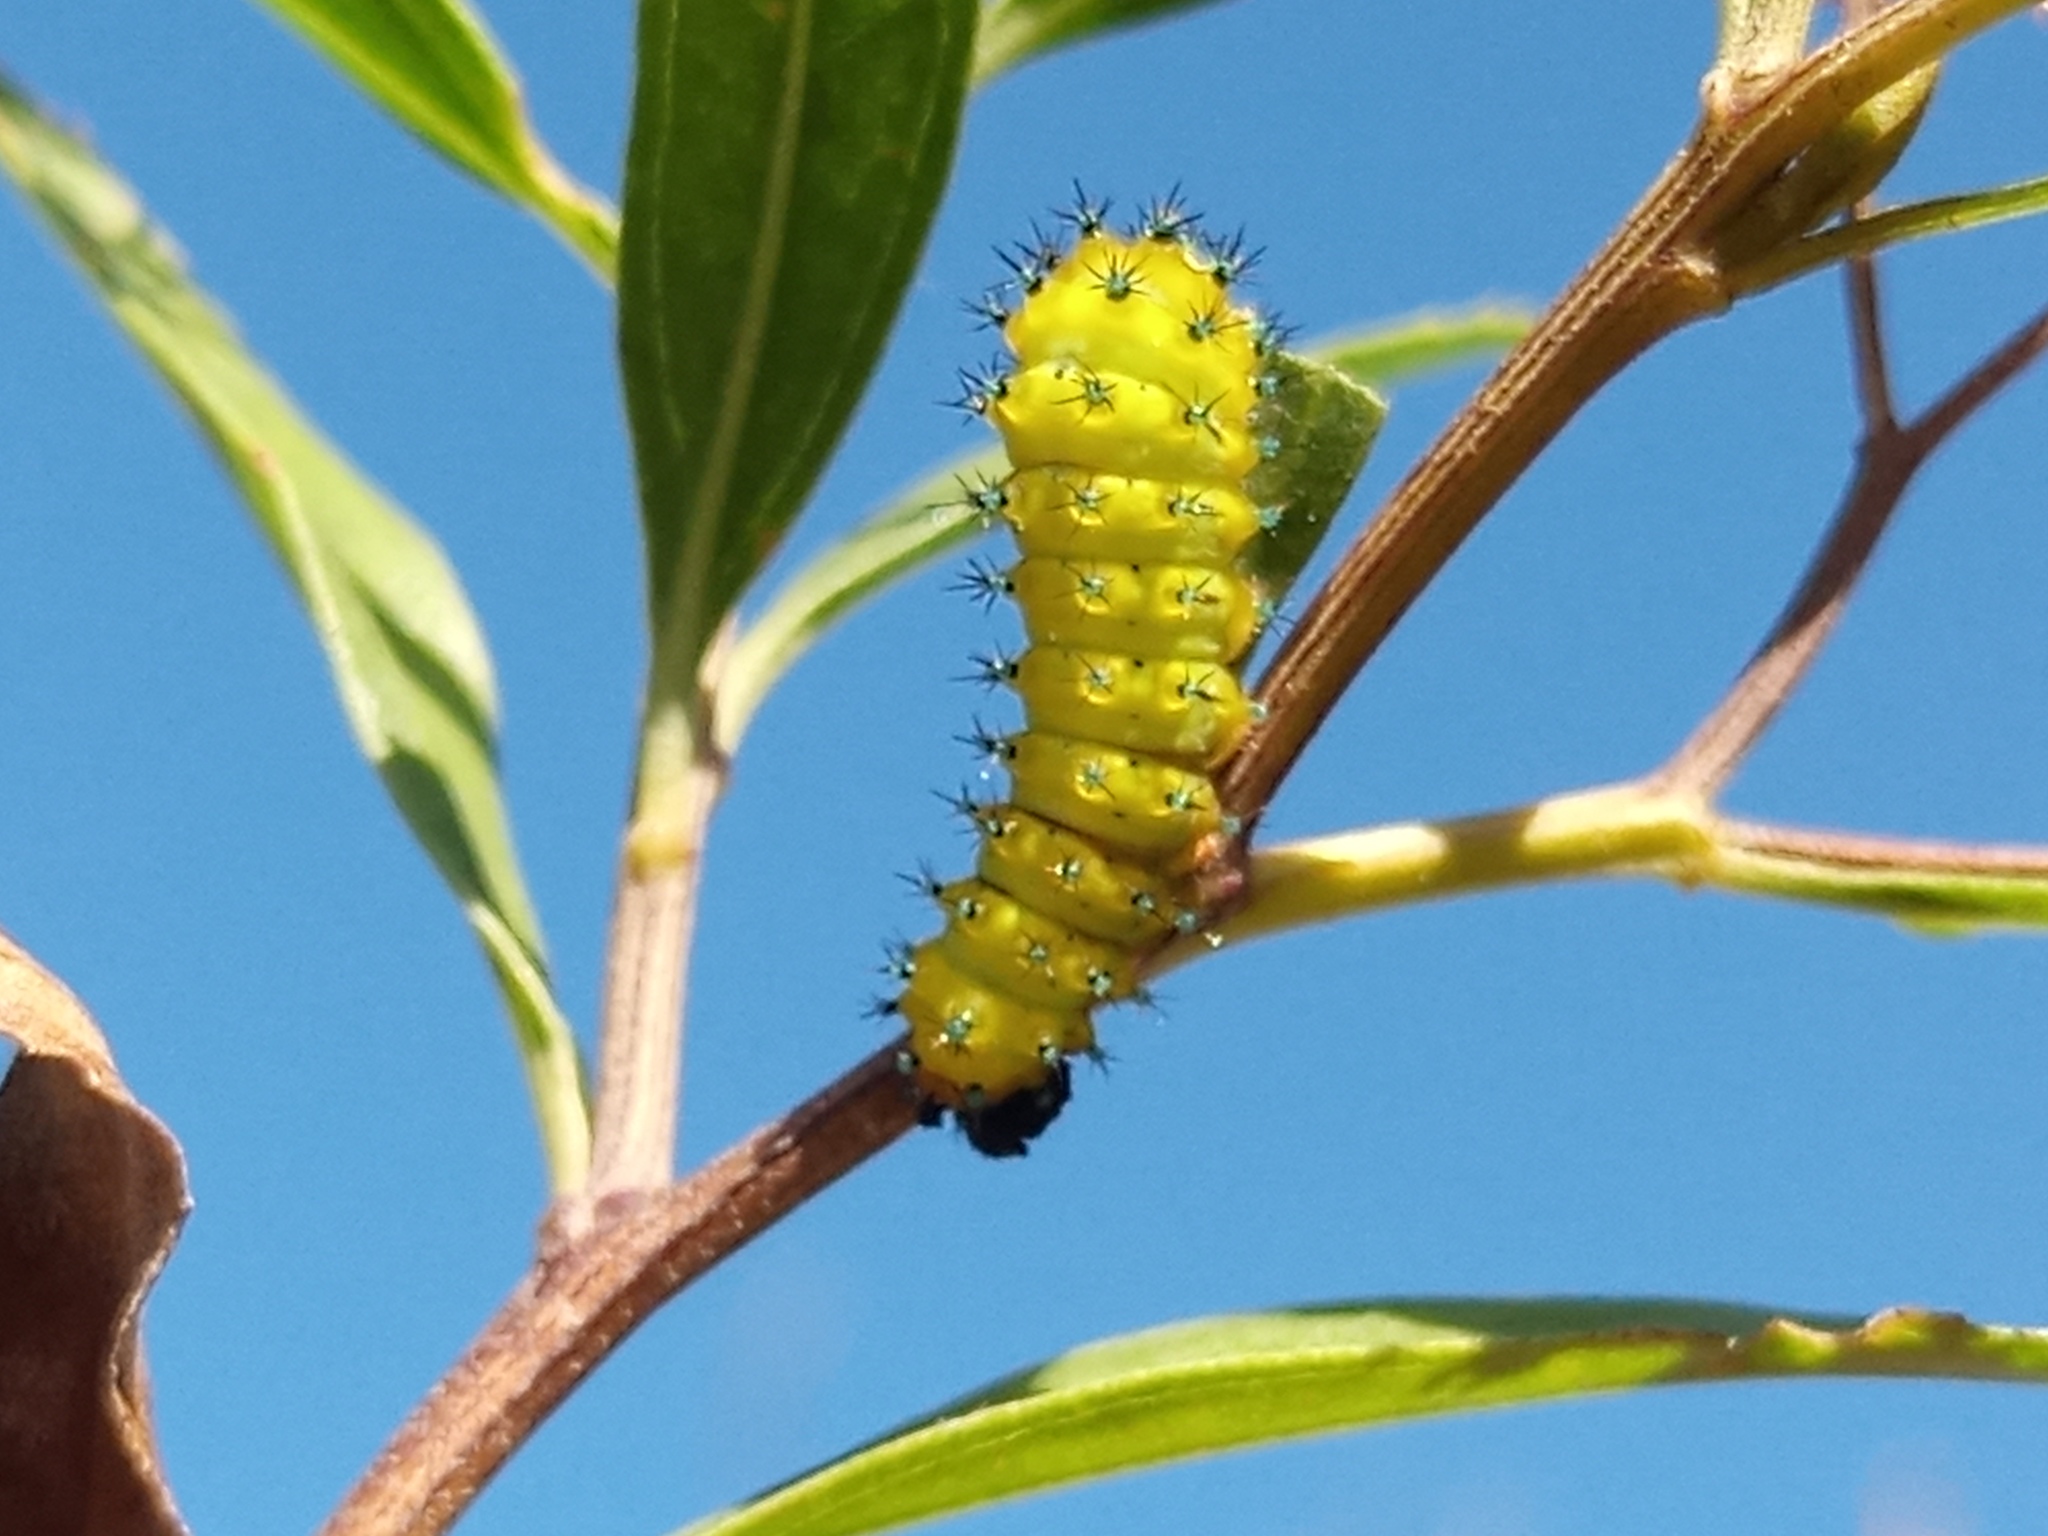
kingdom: Animalia
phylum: Arthropoda
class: Insecta
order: Lepidoptera
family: Saturniidae
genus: Rothschildia
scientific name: Rothschildia jacobaeae
